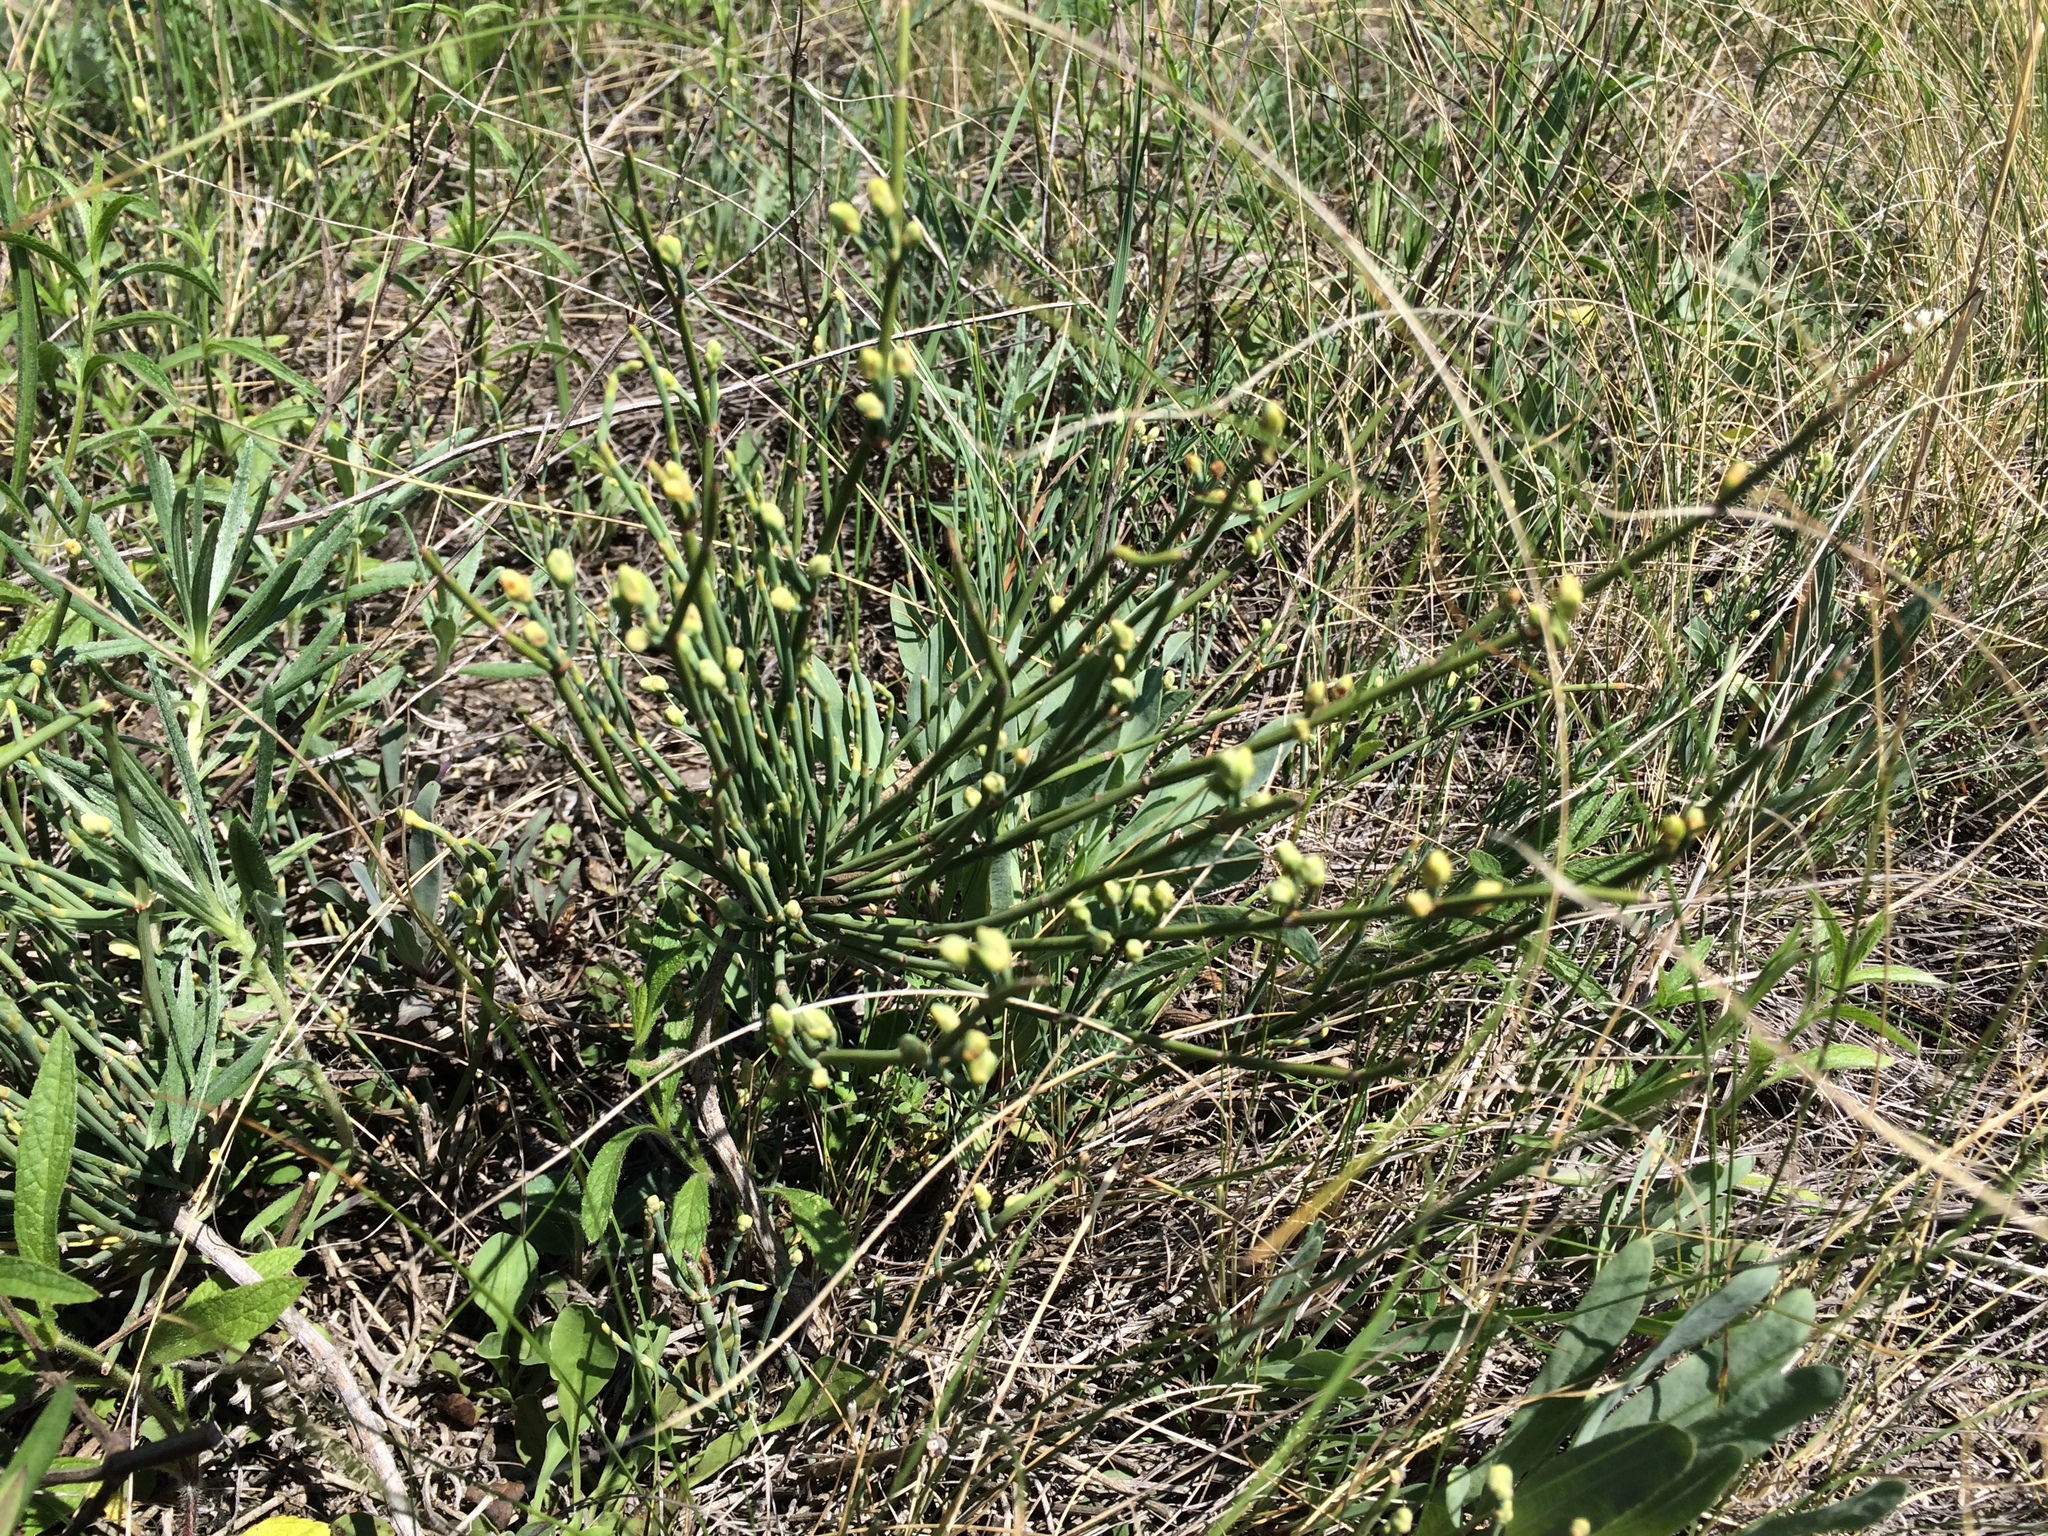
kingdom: Plantae
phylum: Tracheophyta
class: Gnetopsida
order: Ephedrales
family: Ephedraceae
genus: Ephedra
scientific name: Ephedra distachya
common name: Sea grape
